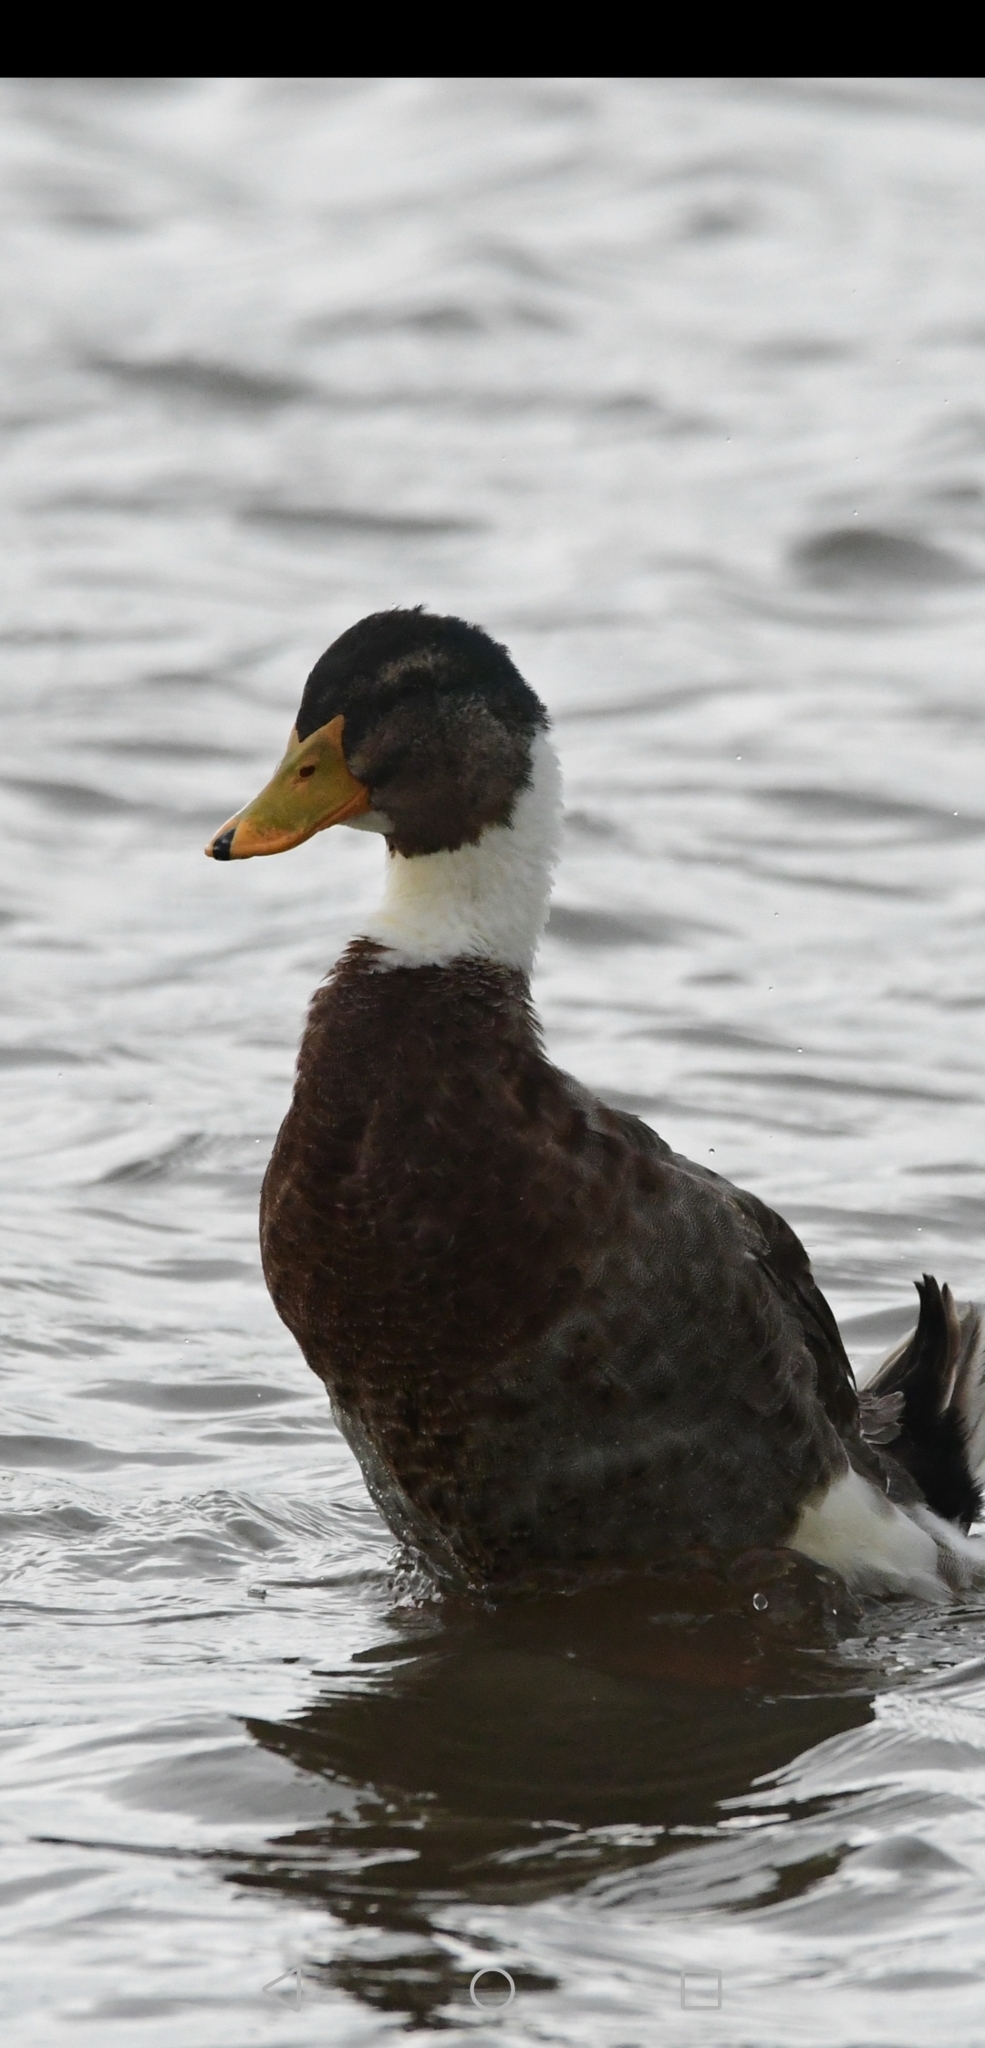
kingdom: Animalia
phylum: Chordata
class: Aves
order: Anseriformes
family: Anatidae
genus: Anas
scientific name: Anas platyrhynchos
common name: Mallard
